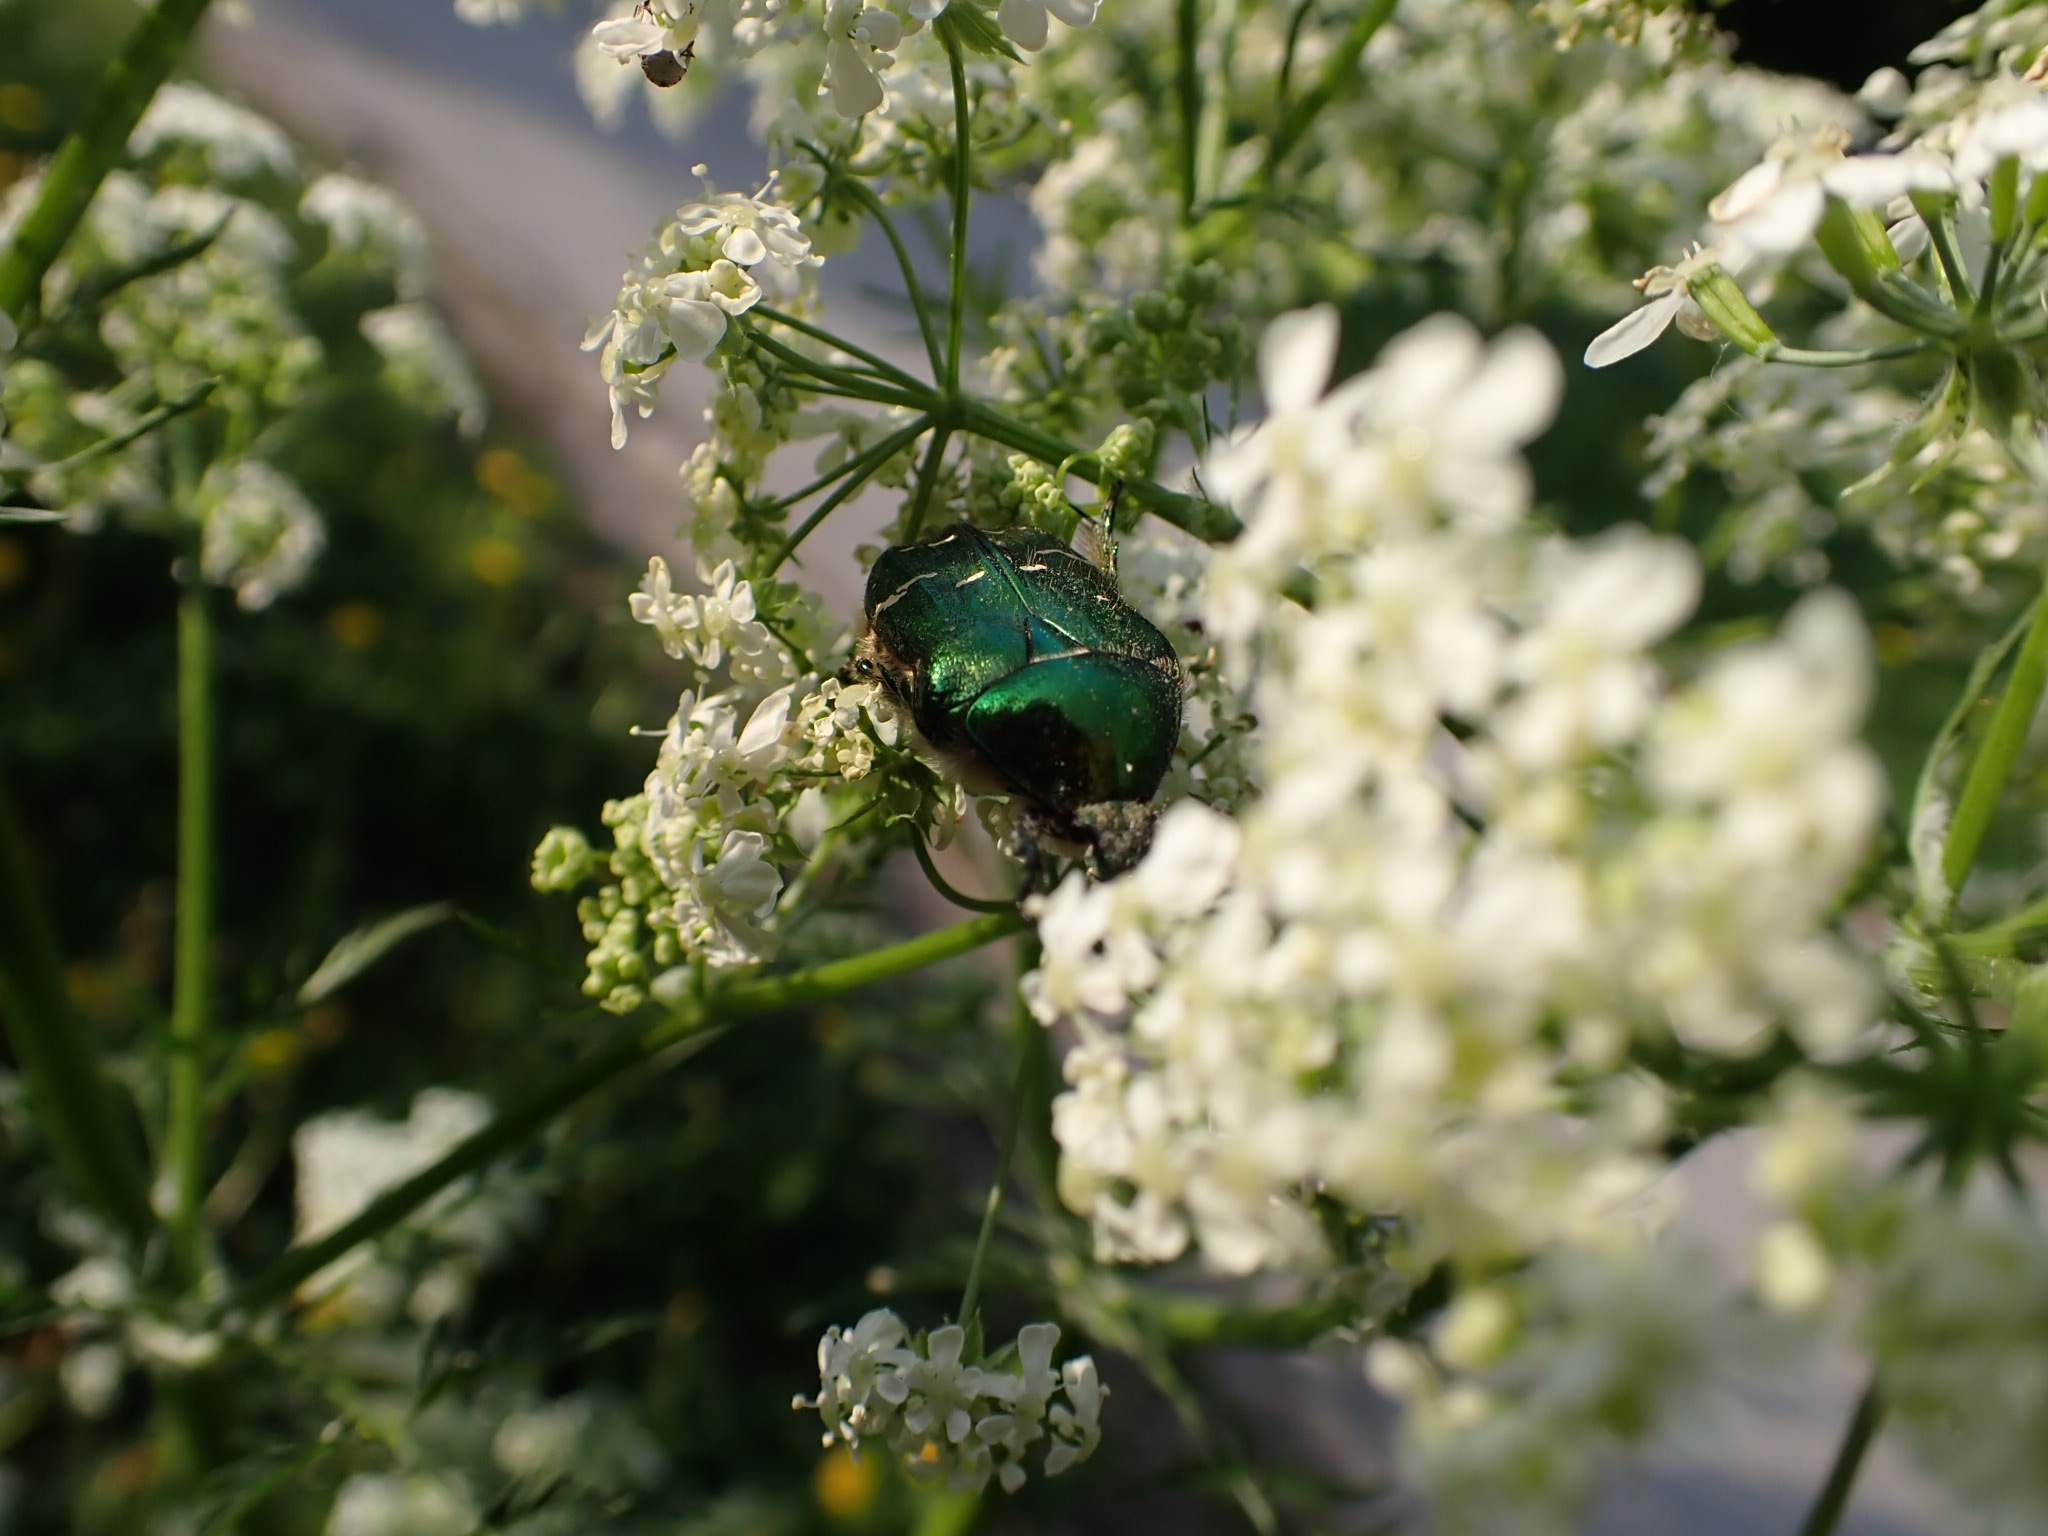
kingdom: Animalia
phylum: Arthropoda
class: Insecta
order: Coleoptera
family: Scarabaeidae
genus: Cetonia
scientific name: Cetonia aurata
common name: Rose chafer
